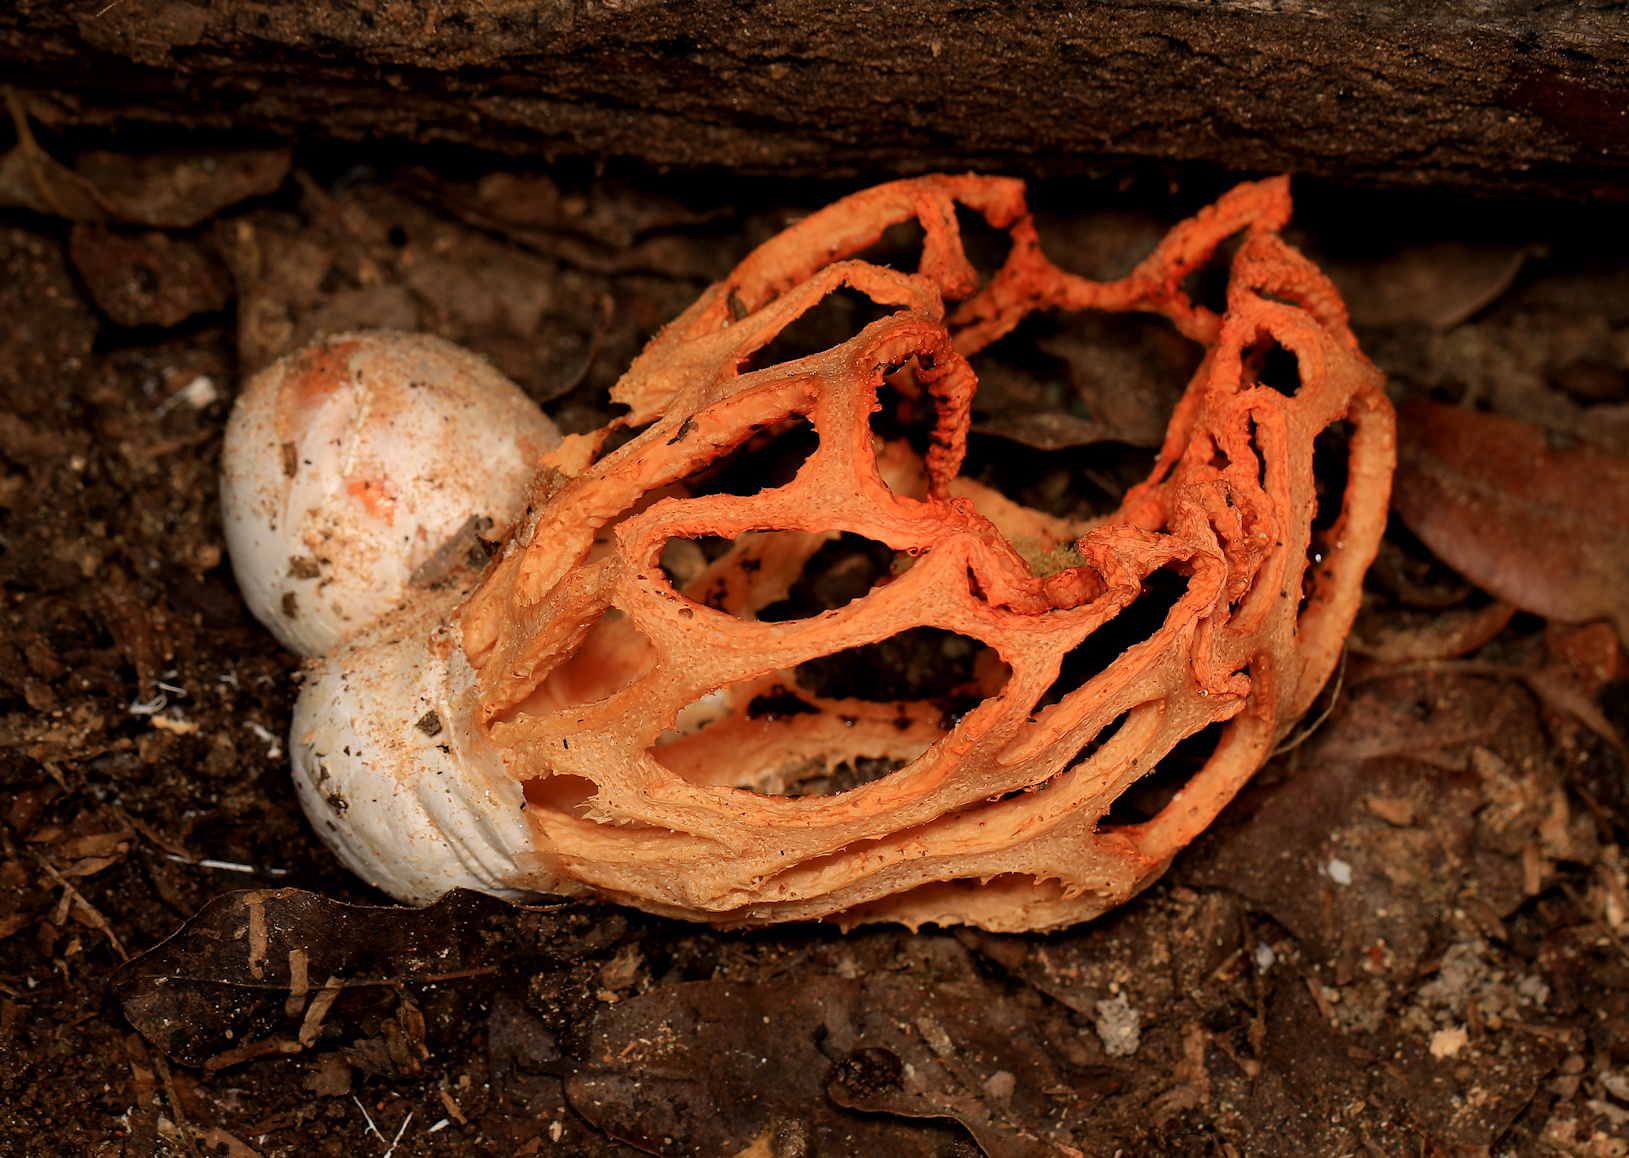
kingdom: Fungi
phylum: Basidiomycota
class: Agaricomycetes
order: Phallales
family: Phallaceae
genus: Clathrus
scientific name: Clathrus camerunensis
